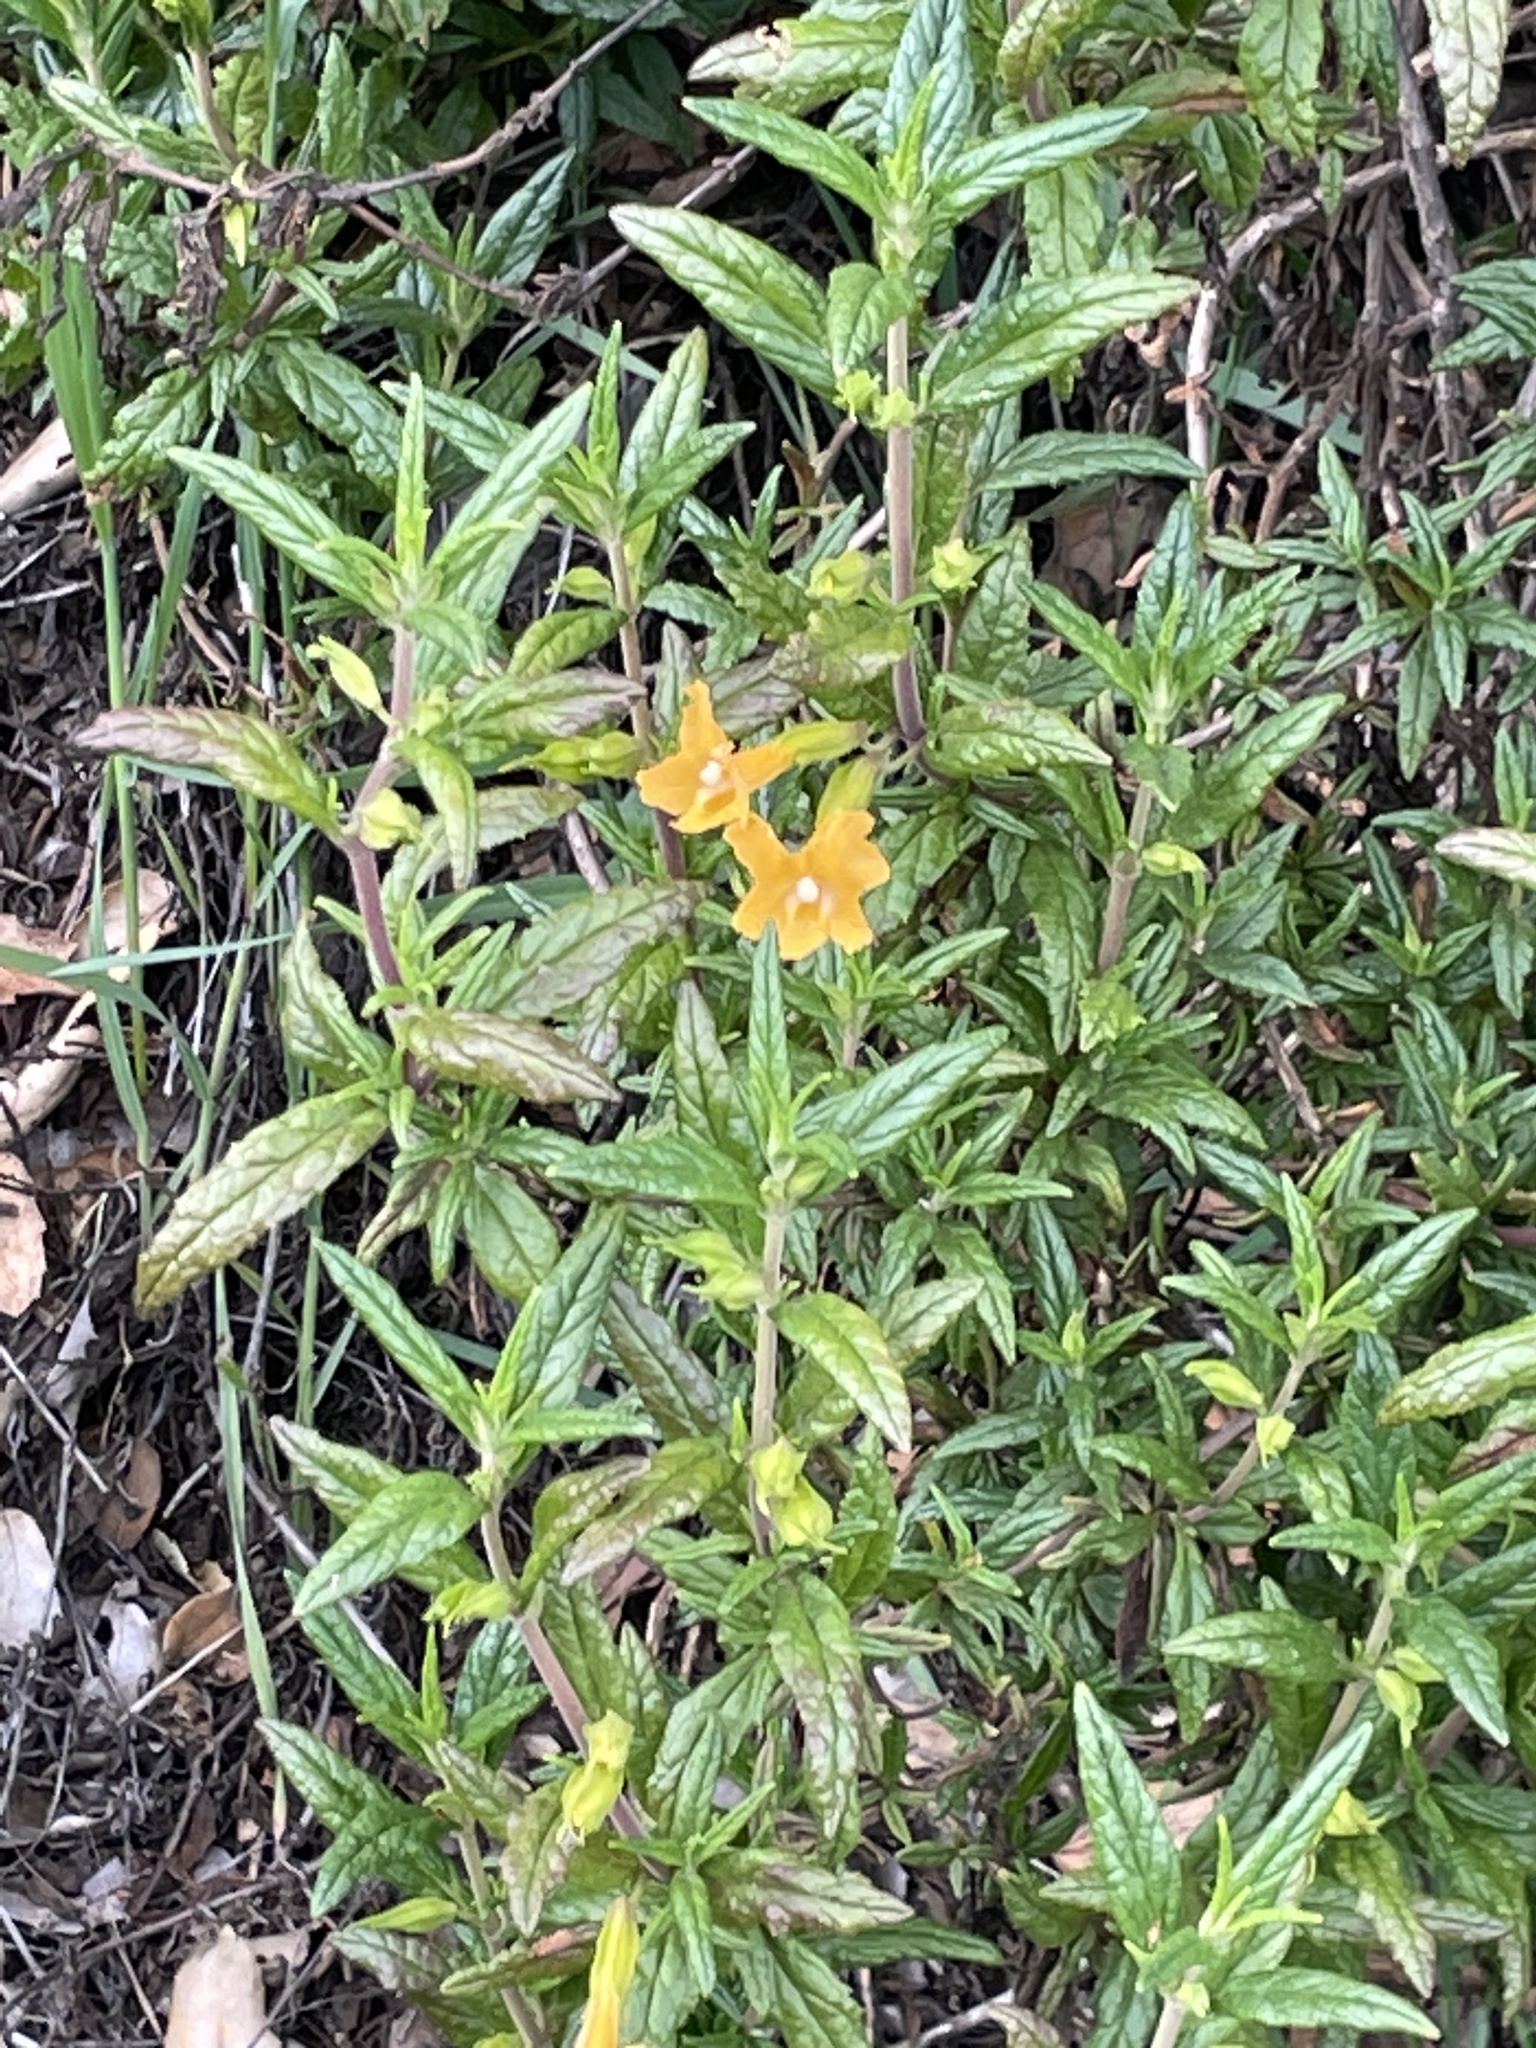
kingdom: Plantae
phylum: Tracheophyta
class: Magnoliopsida
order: Lamiales
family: Phrymaceae
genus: Diplacus
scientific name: Diplacus aurantiacus
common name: Bush monkey-flower
